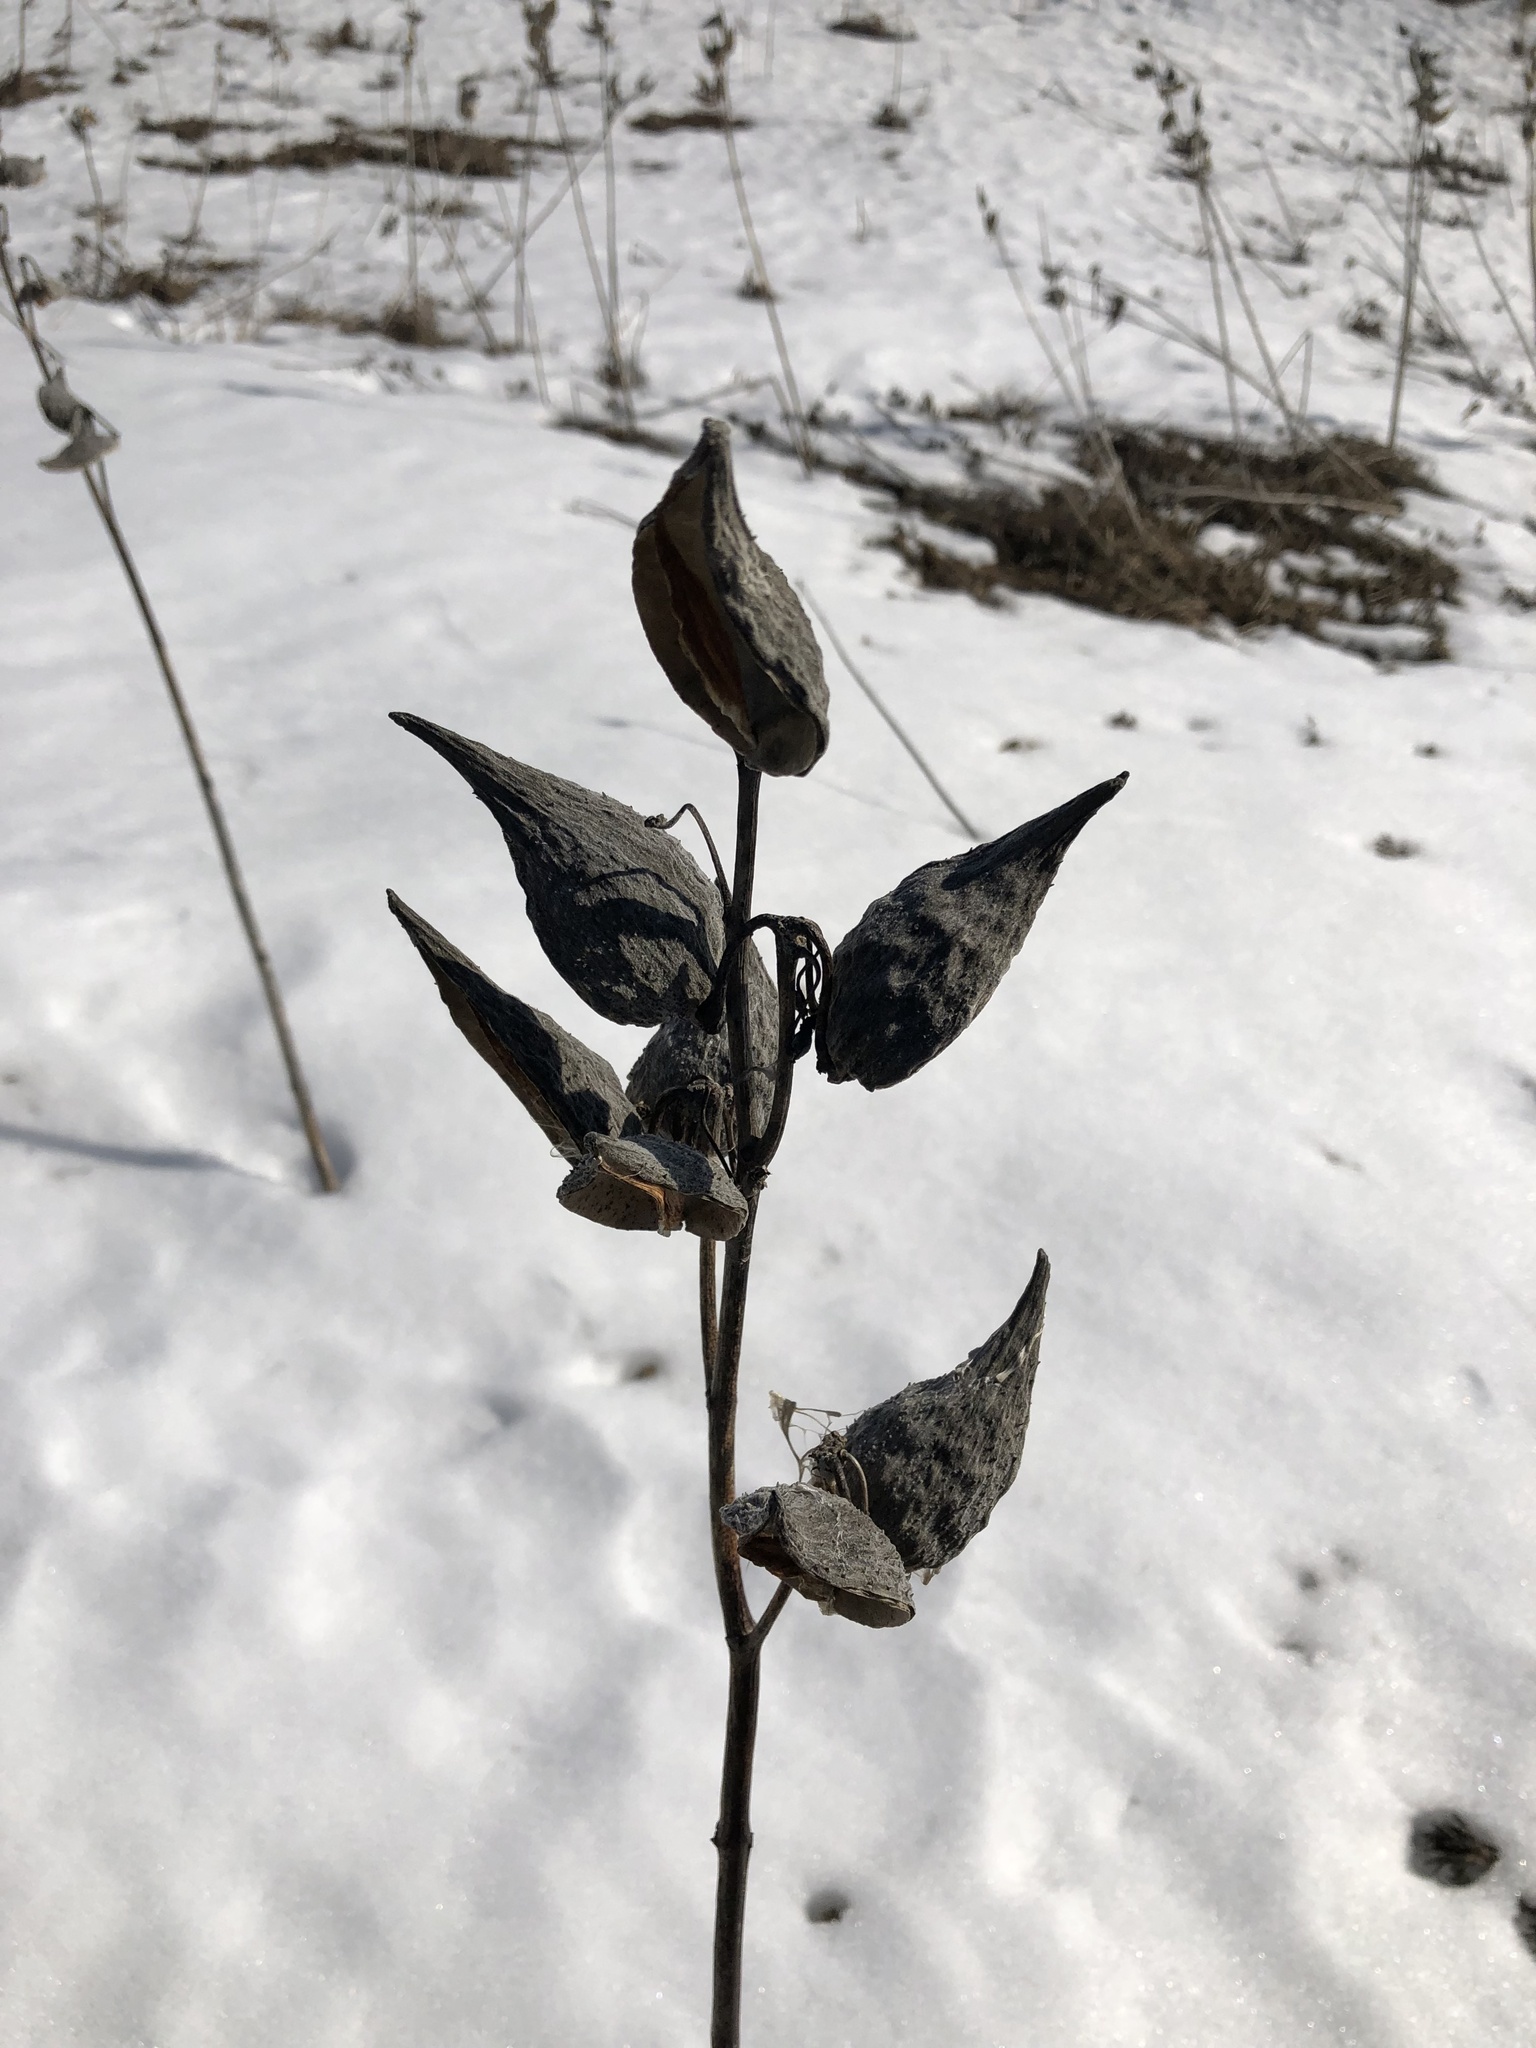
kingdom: Plantae
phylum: Tracheophyta
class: Magnoliopsida
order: Gentianales
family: Apocynaceae
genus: Asclepias
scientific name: Asclepias syriaca
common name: Common milkweed
